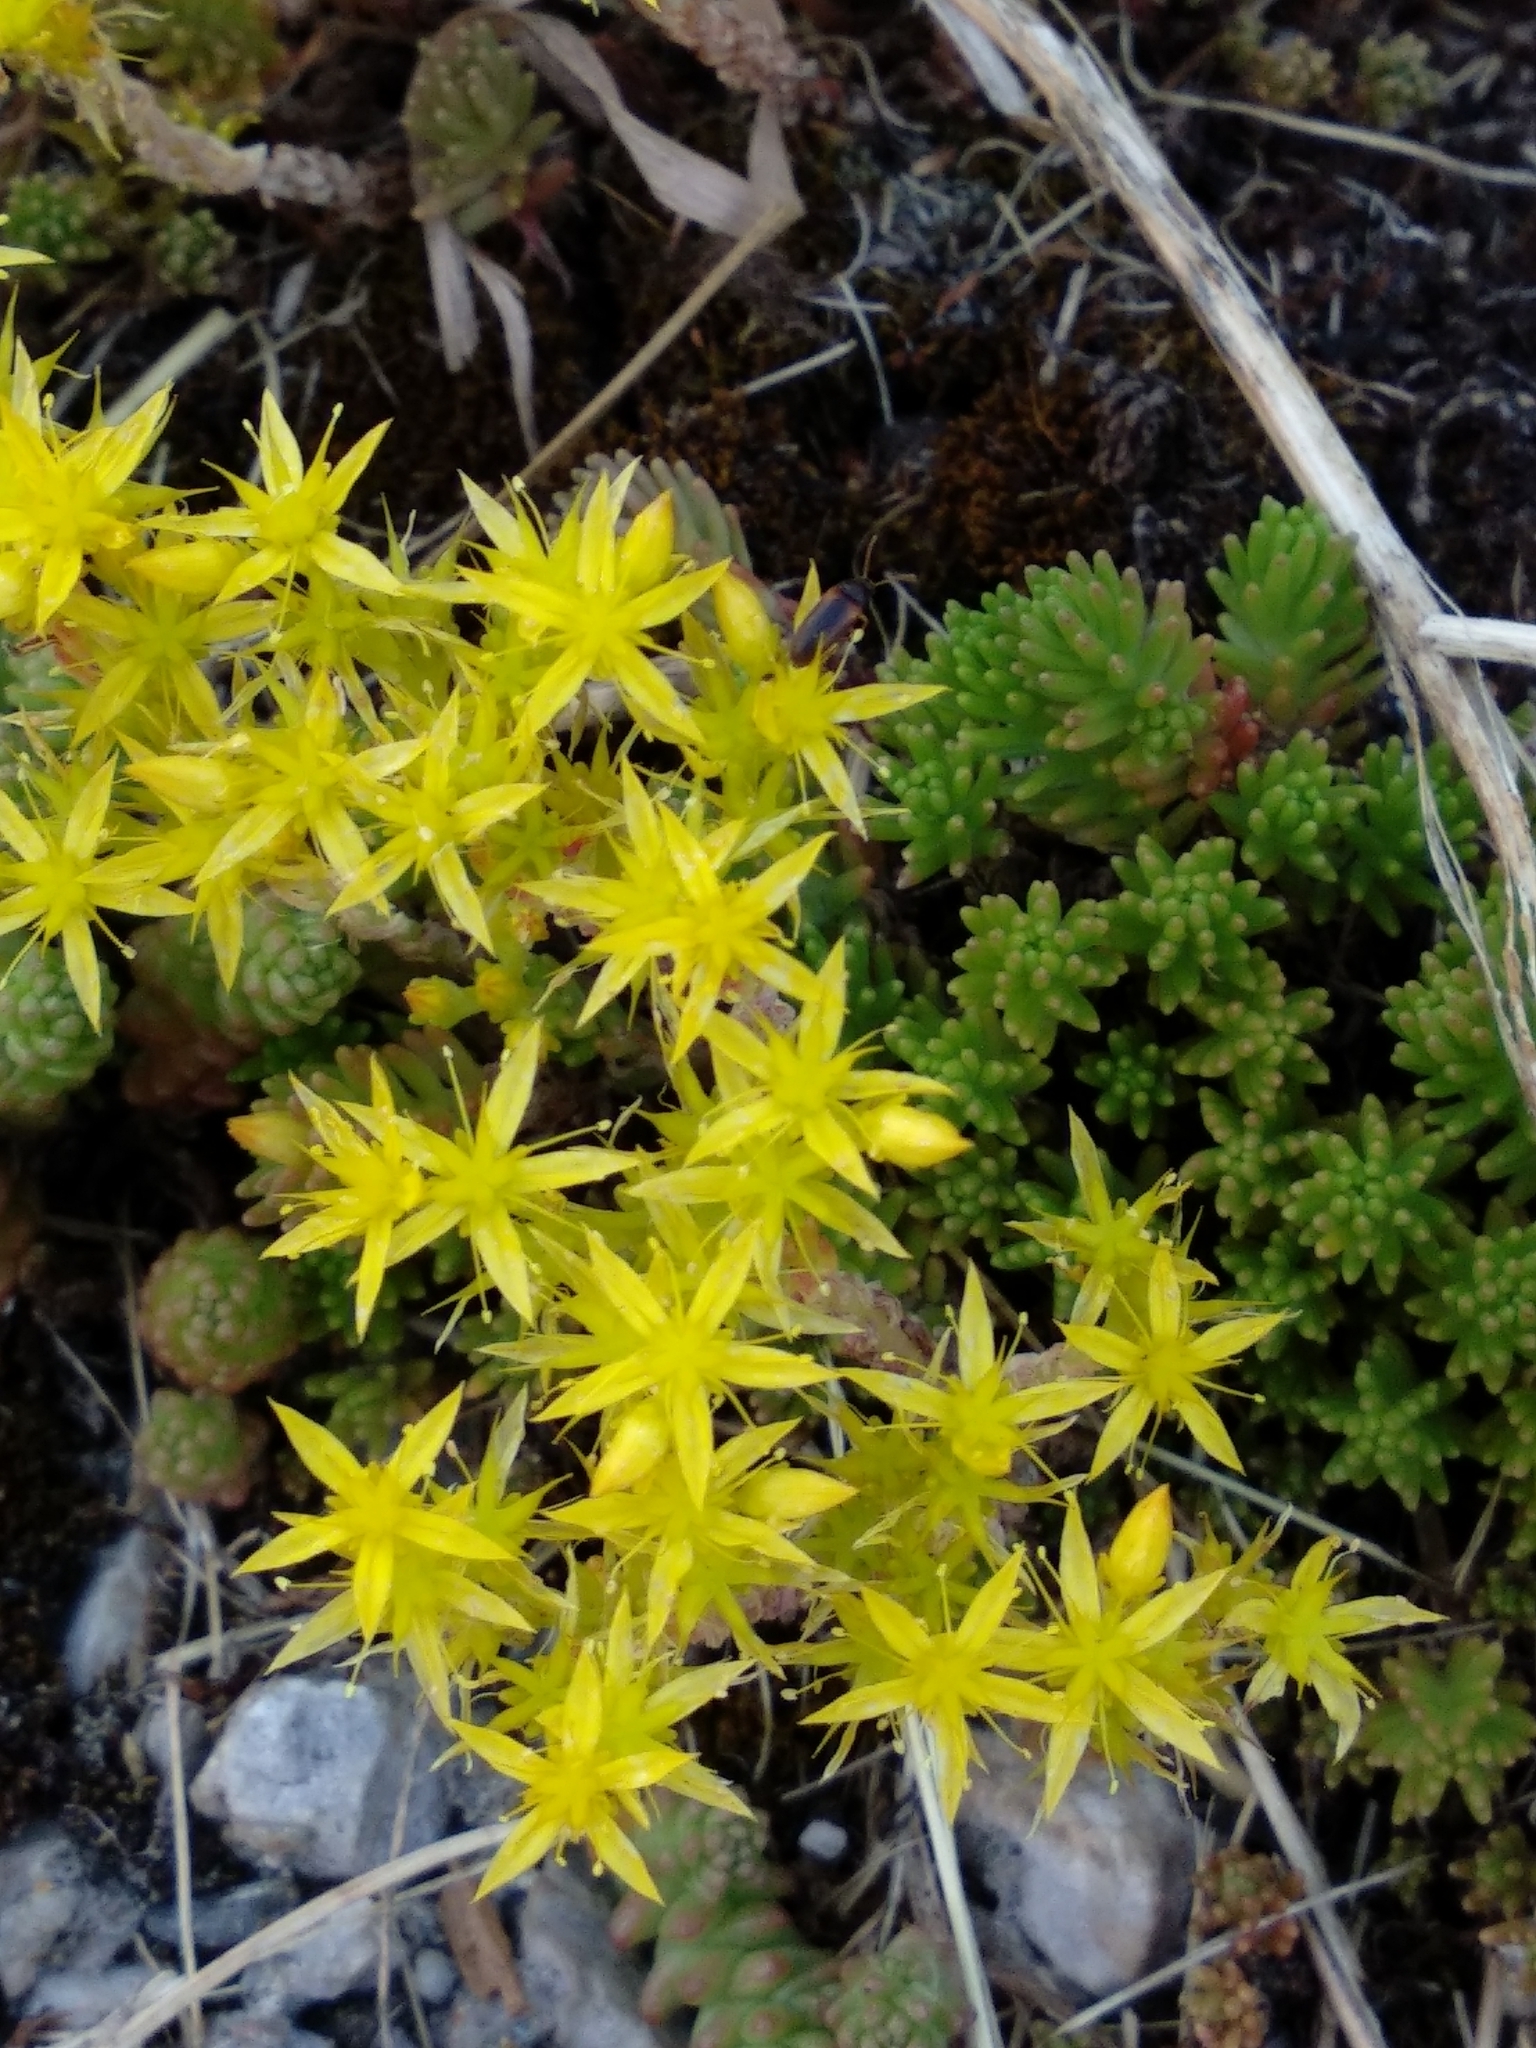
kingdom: Plantae
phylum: Tracheophyta
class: Magnoliopsida
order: Saxifragales
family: Crassulaceae
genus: Sedum
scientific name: Sedum sexangulare
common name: Tasteless stonecrop
